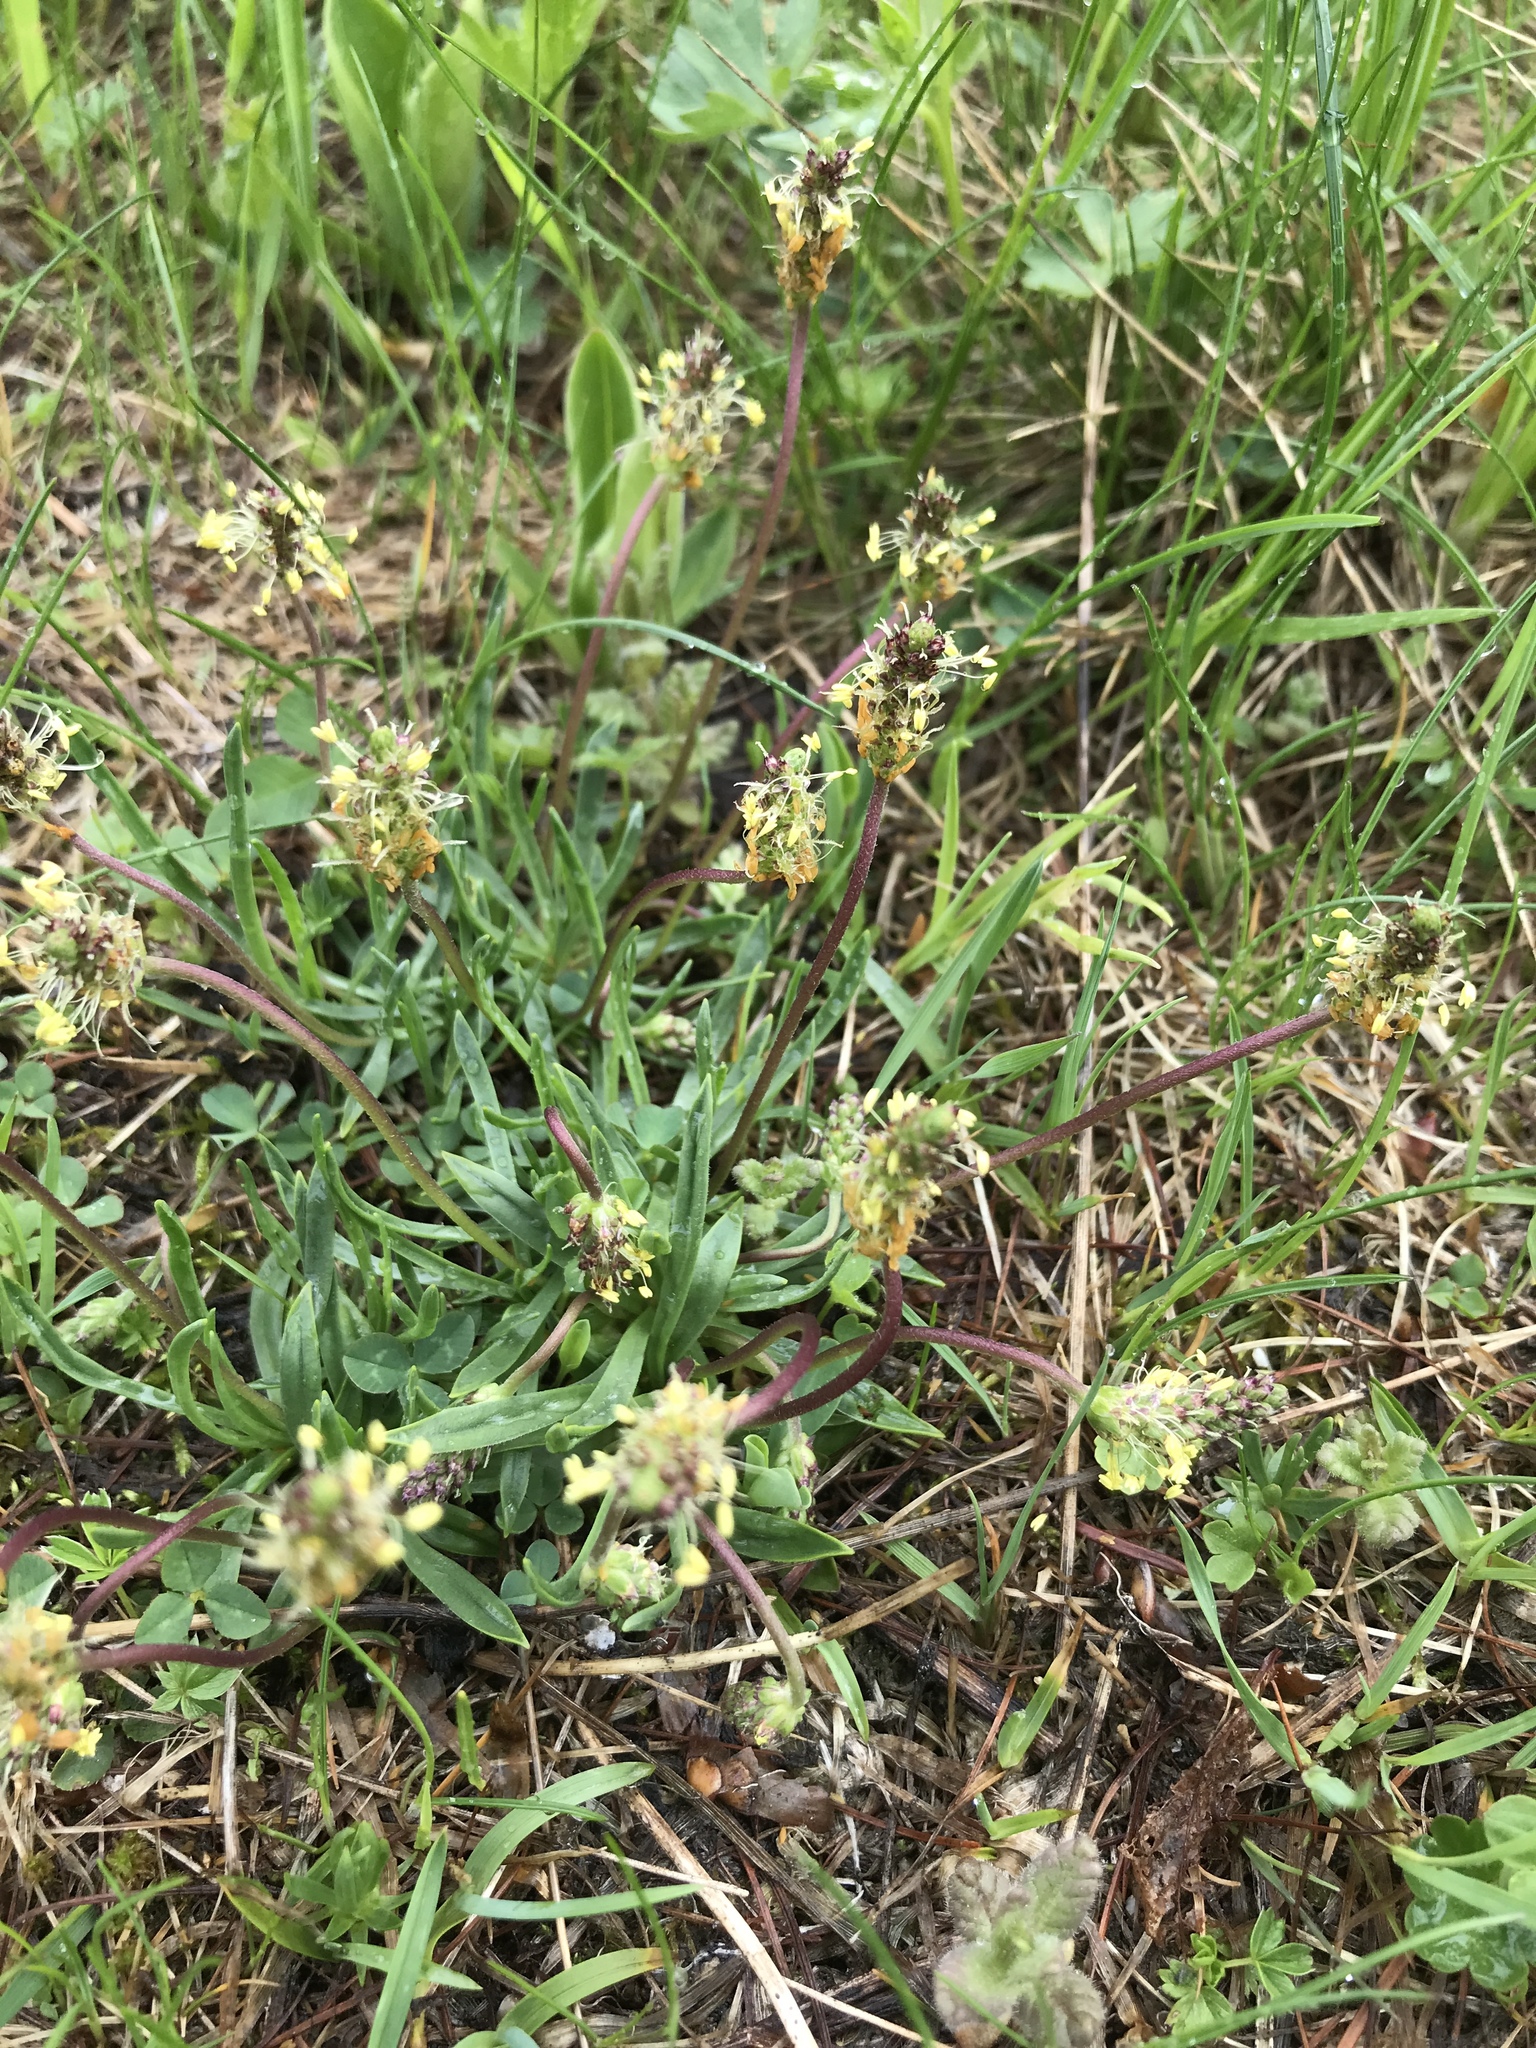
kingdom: Plantae
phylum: Tracheophyta
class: Magnoliopsida
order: Lamiales
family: Plantaginaceae
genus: Plantago
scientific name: Plantago alpina
